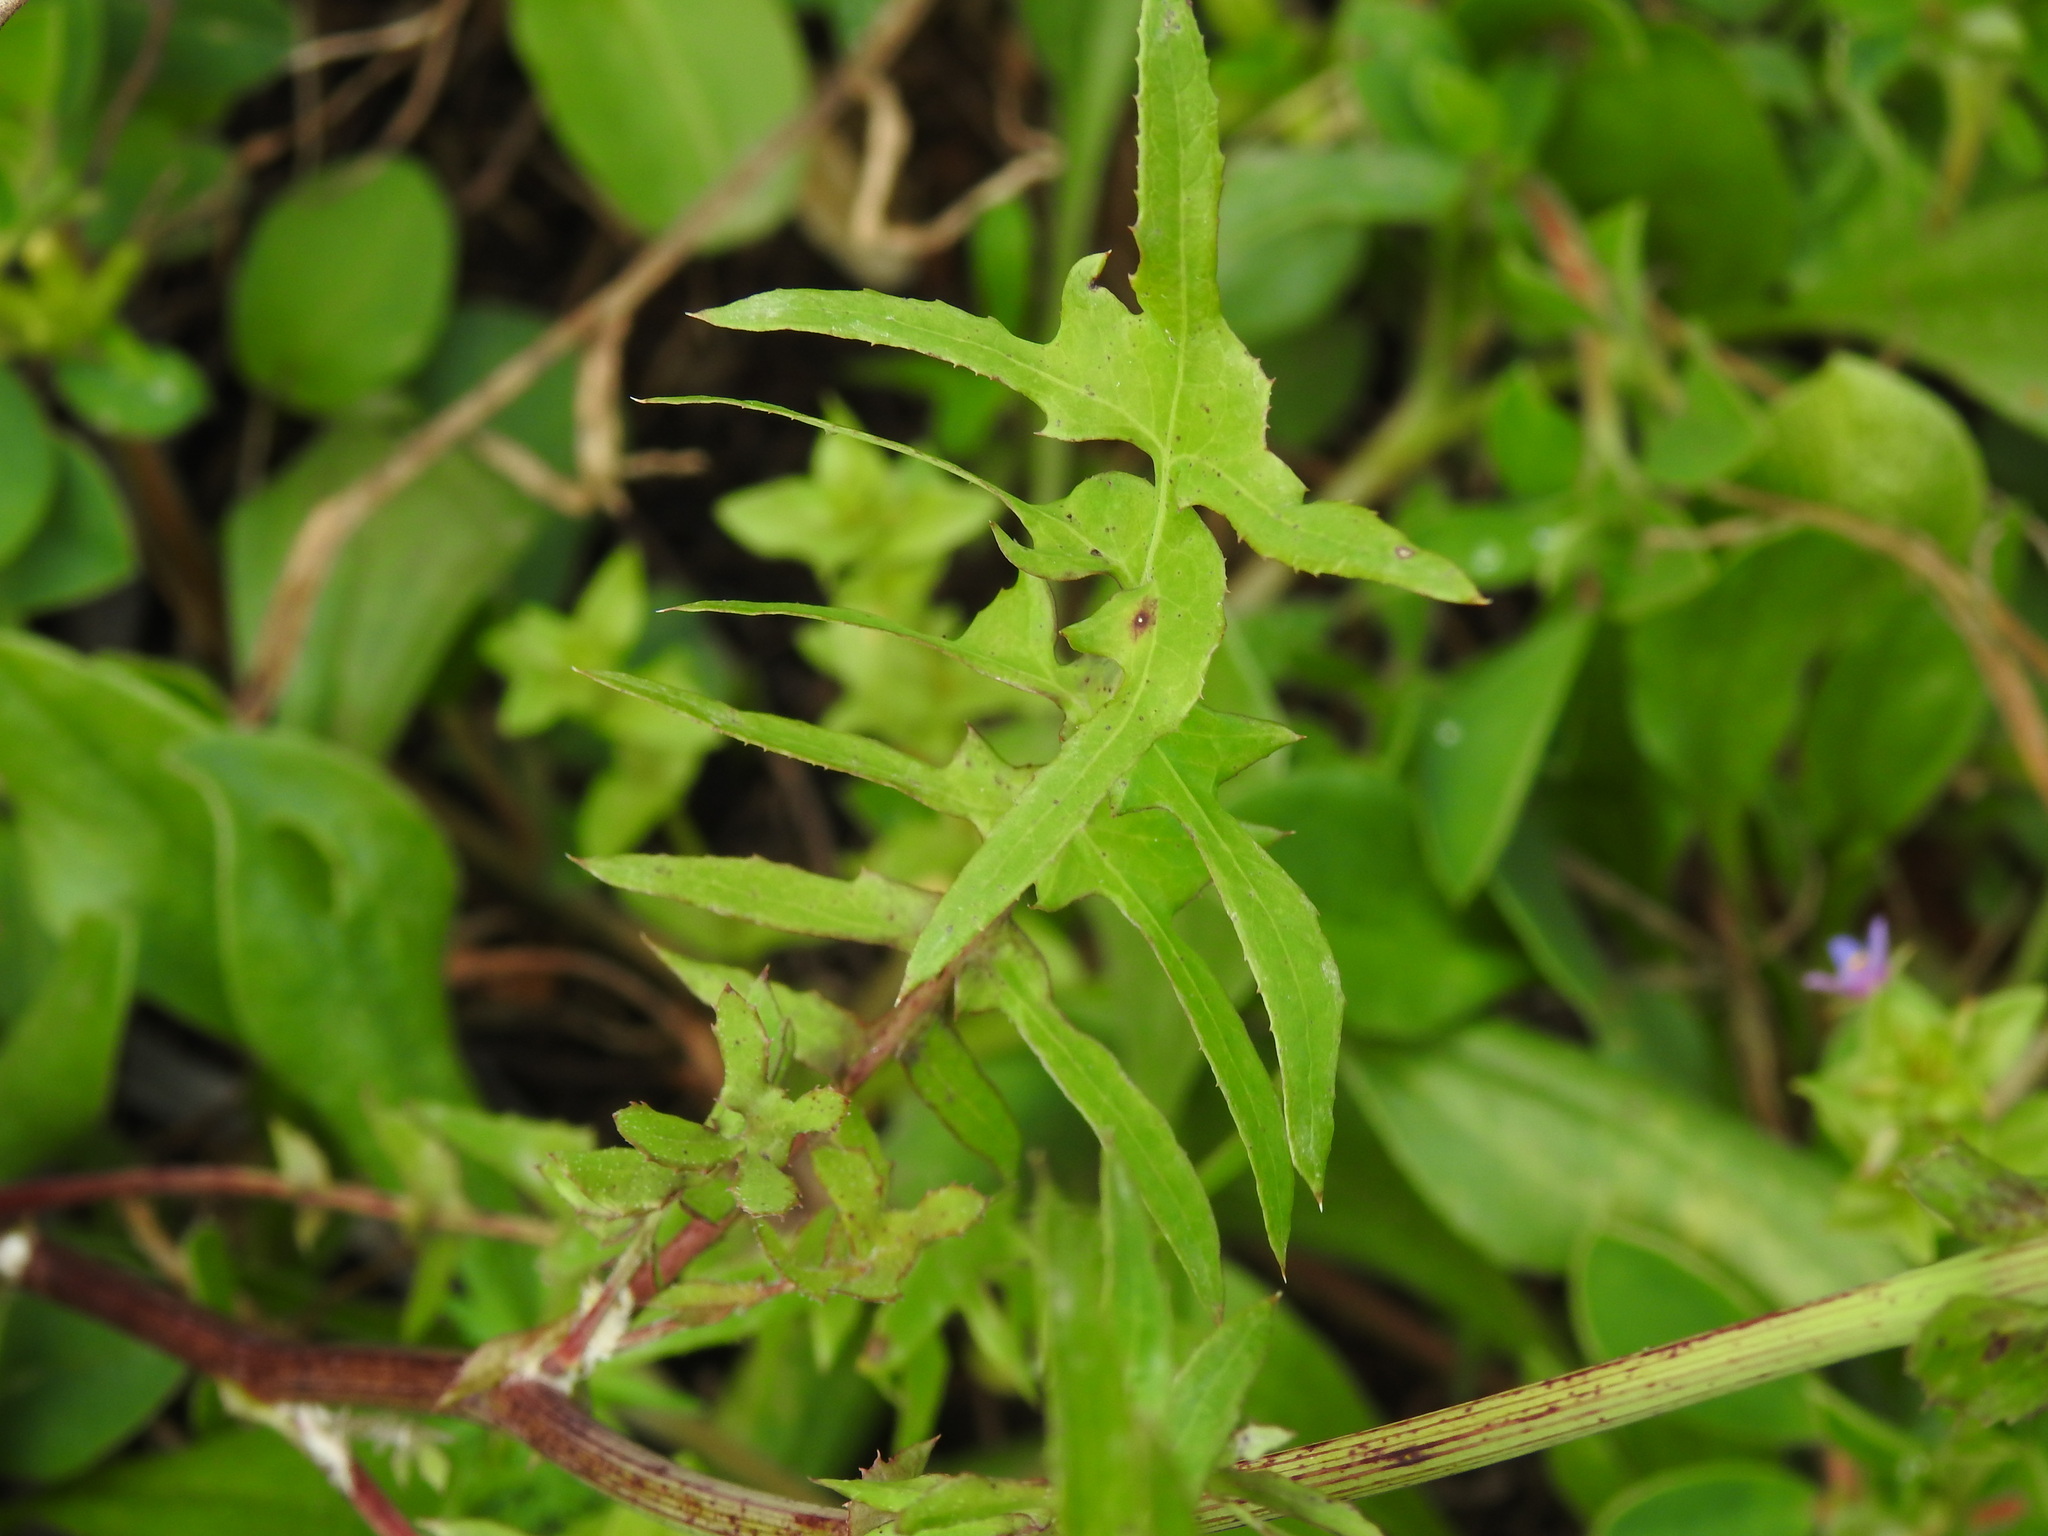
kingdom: Plantae
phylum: Tracheophyta
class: Magnoliopsida
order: Asterales
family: Asteraceae
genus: Sonchus
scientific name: Sonchus tenerrimus
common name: Clammy sowthistle
